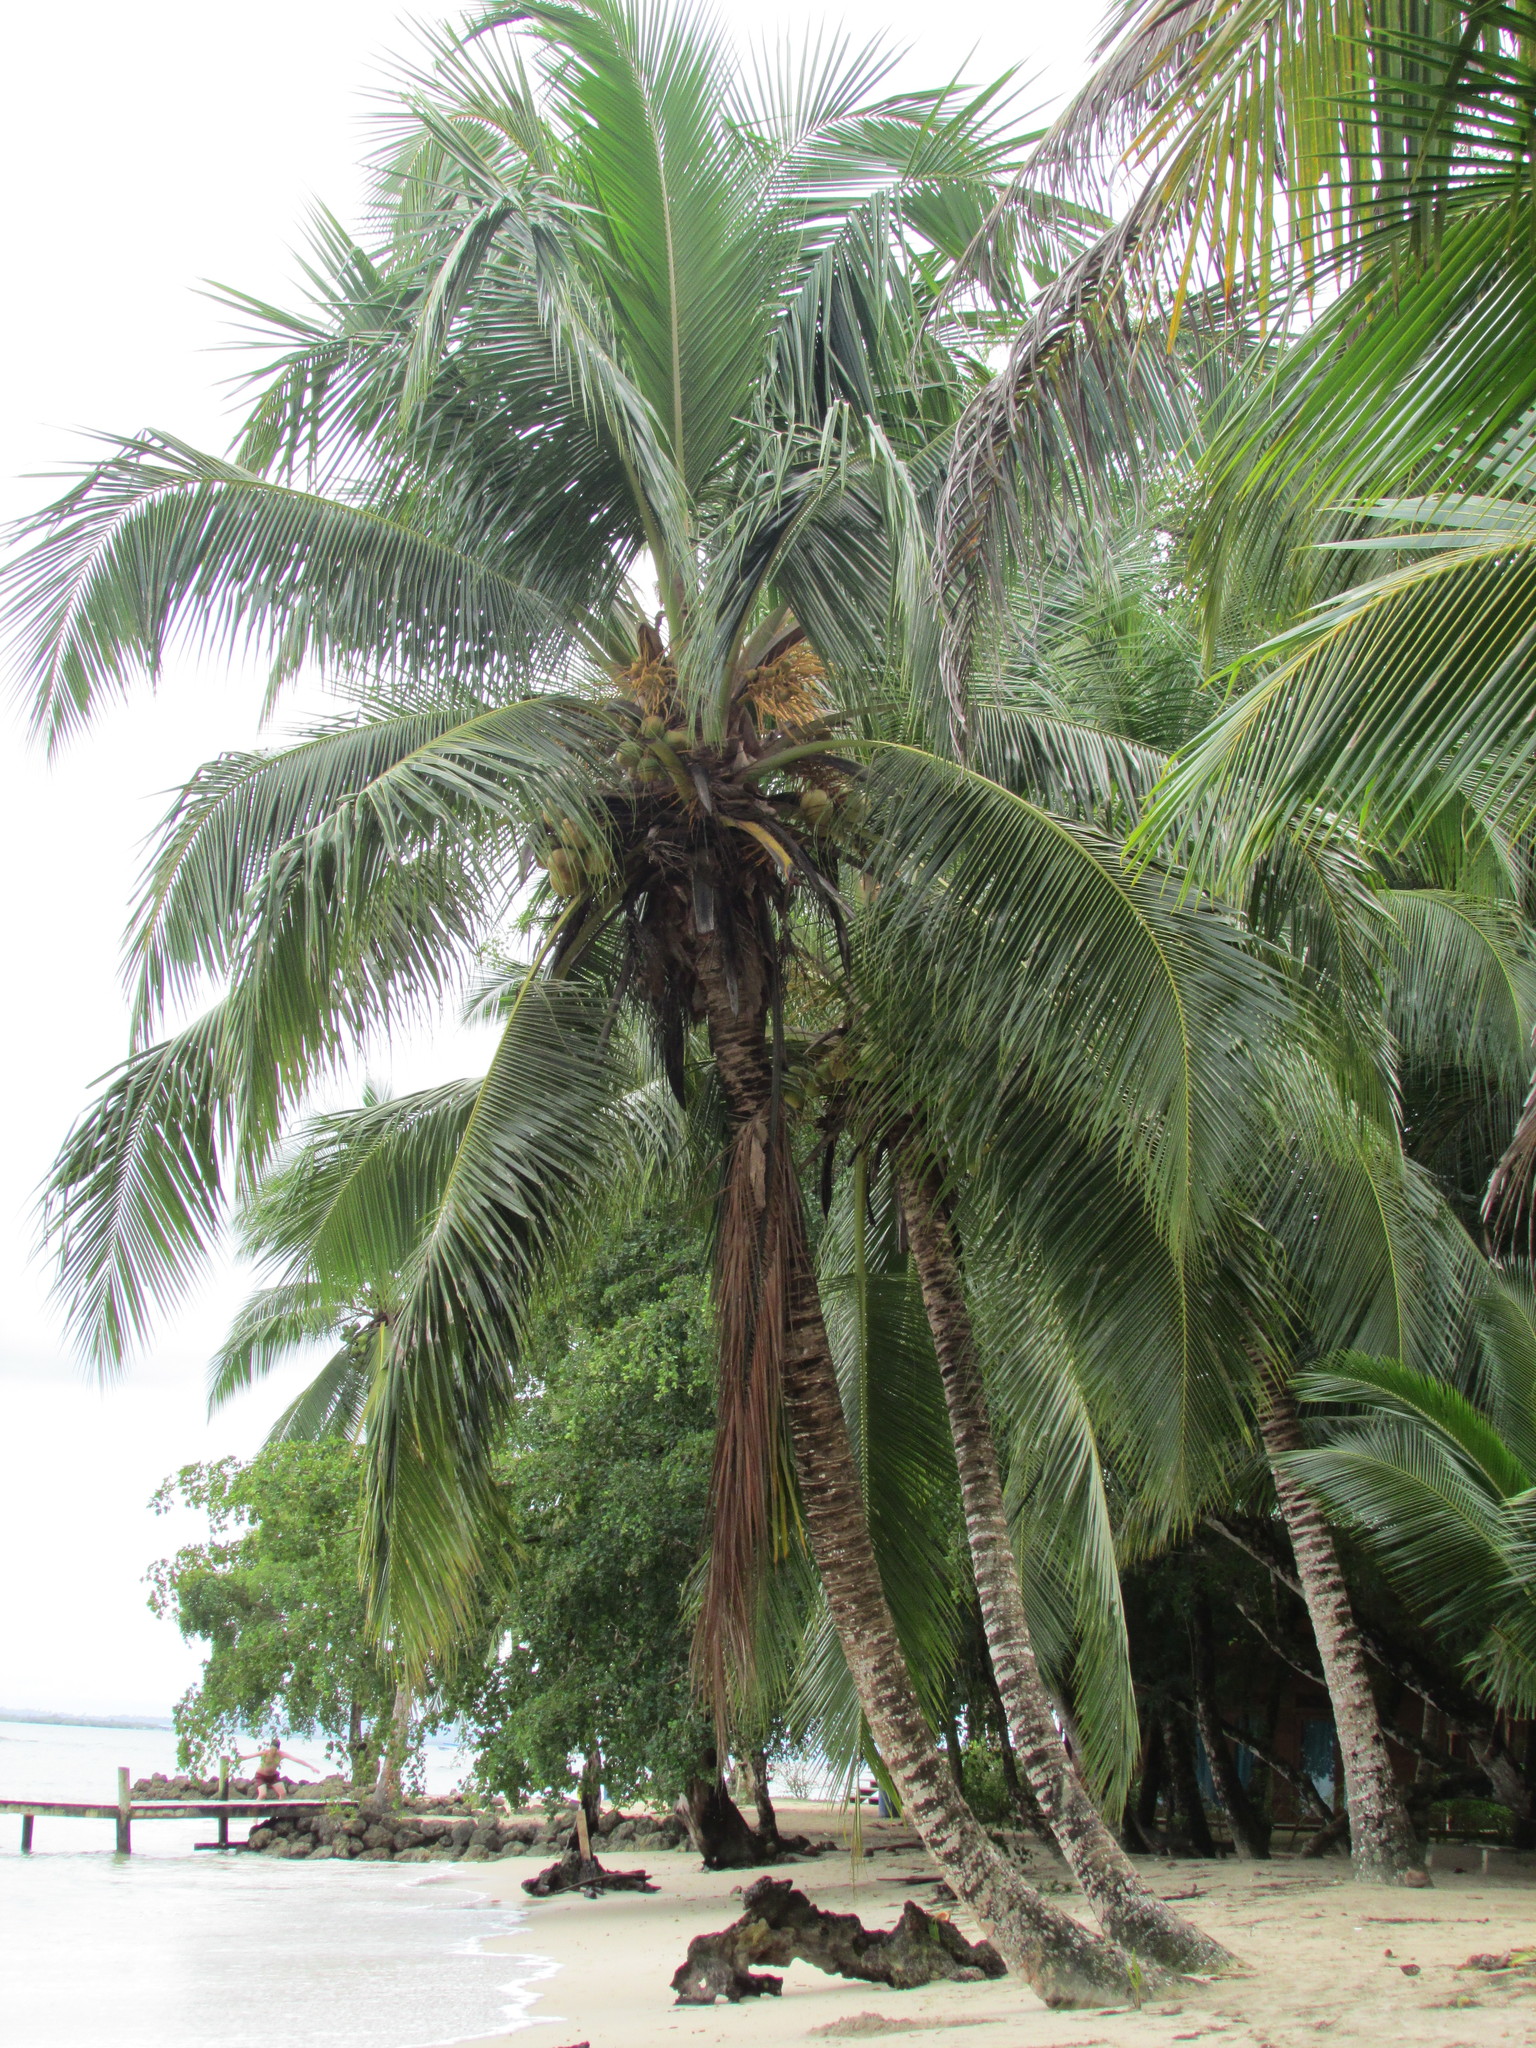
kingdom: Plantae
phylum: Tracheophyta
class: Liliopsida
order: Arecales
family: Arecaceae
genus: Cocos
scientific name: Cocos nucifera
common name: Coconut palm
